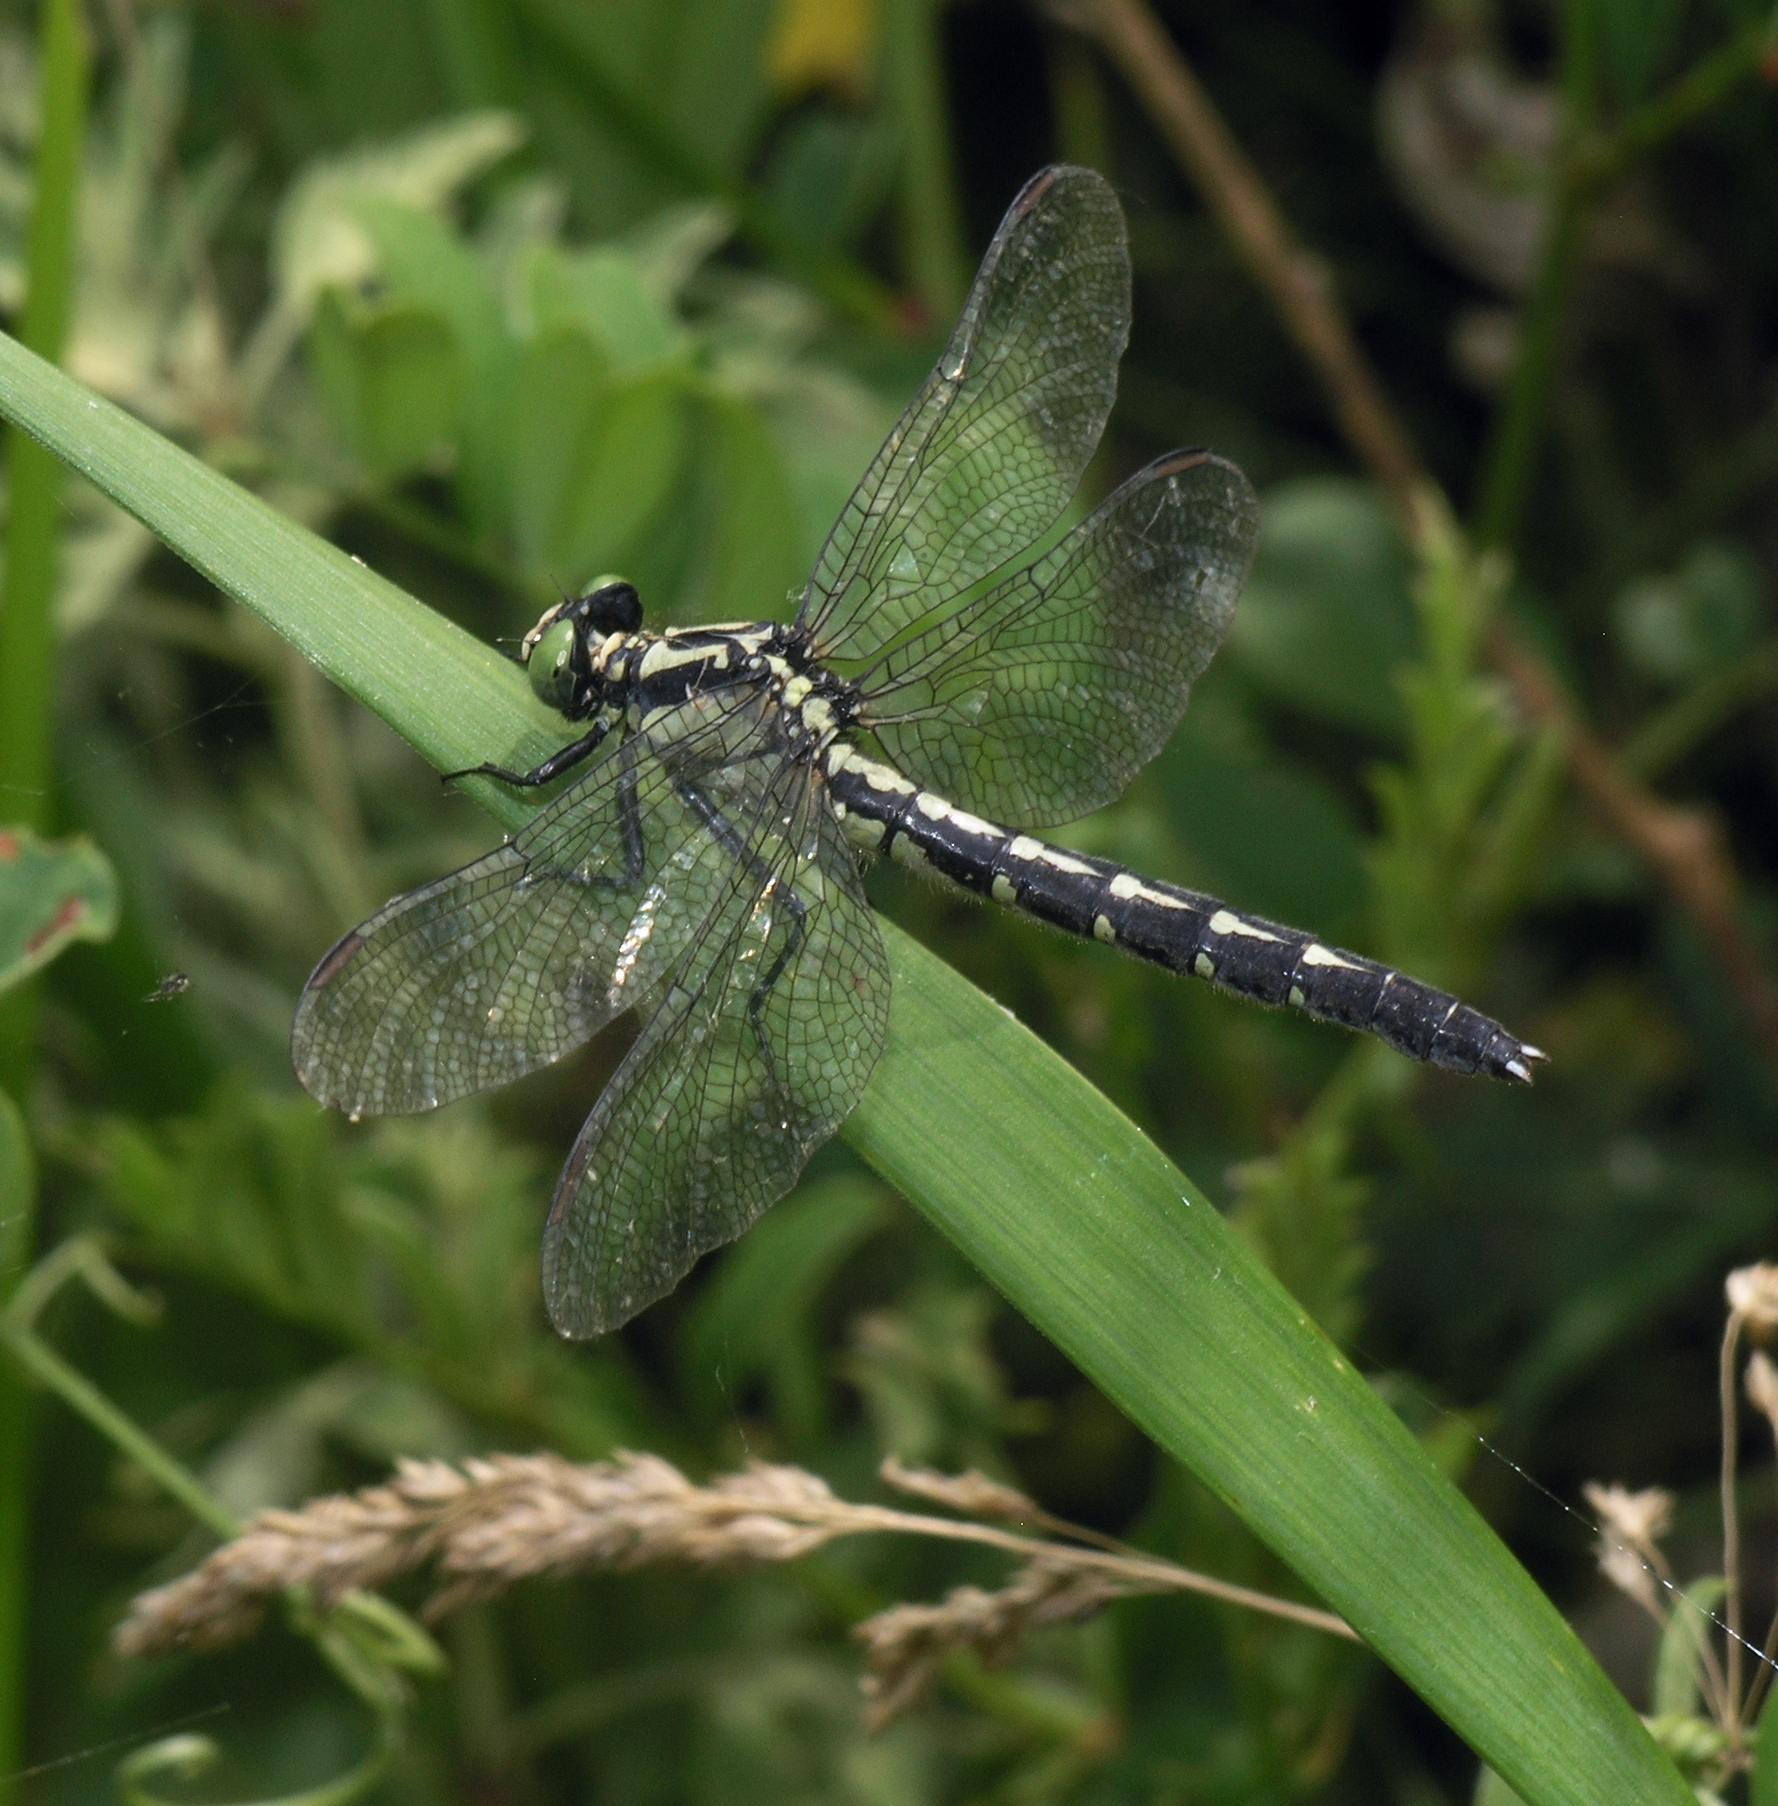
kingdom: Animalia
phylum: Arthropoda
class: Insecta
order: Odonata
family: Gomphidae
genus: Trigomphus
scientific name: Trigomphus citimus
